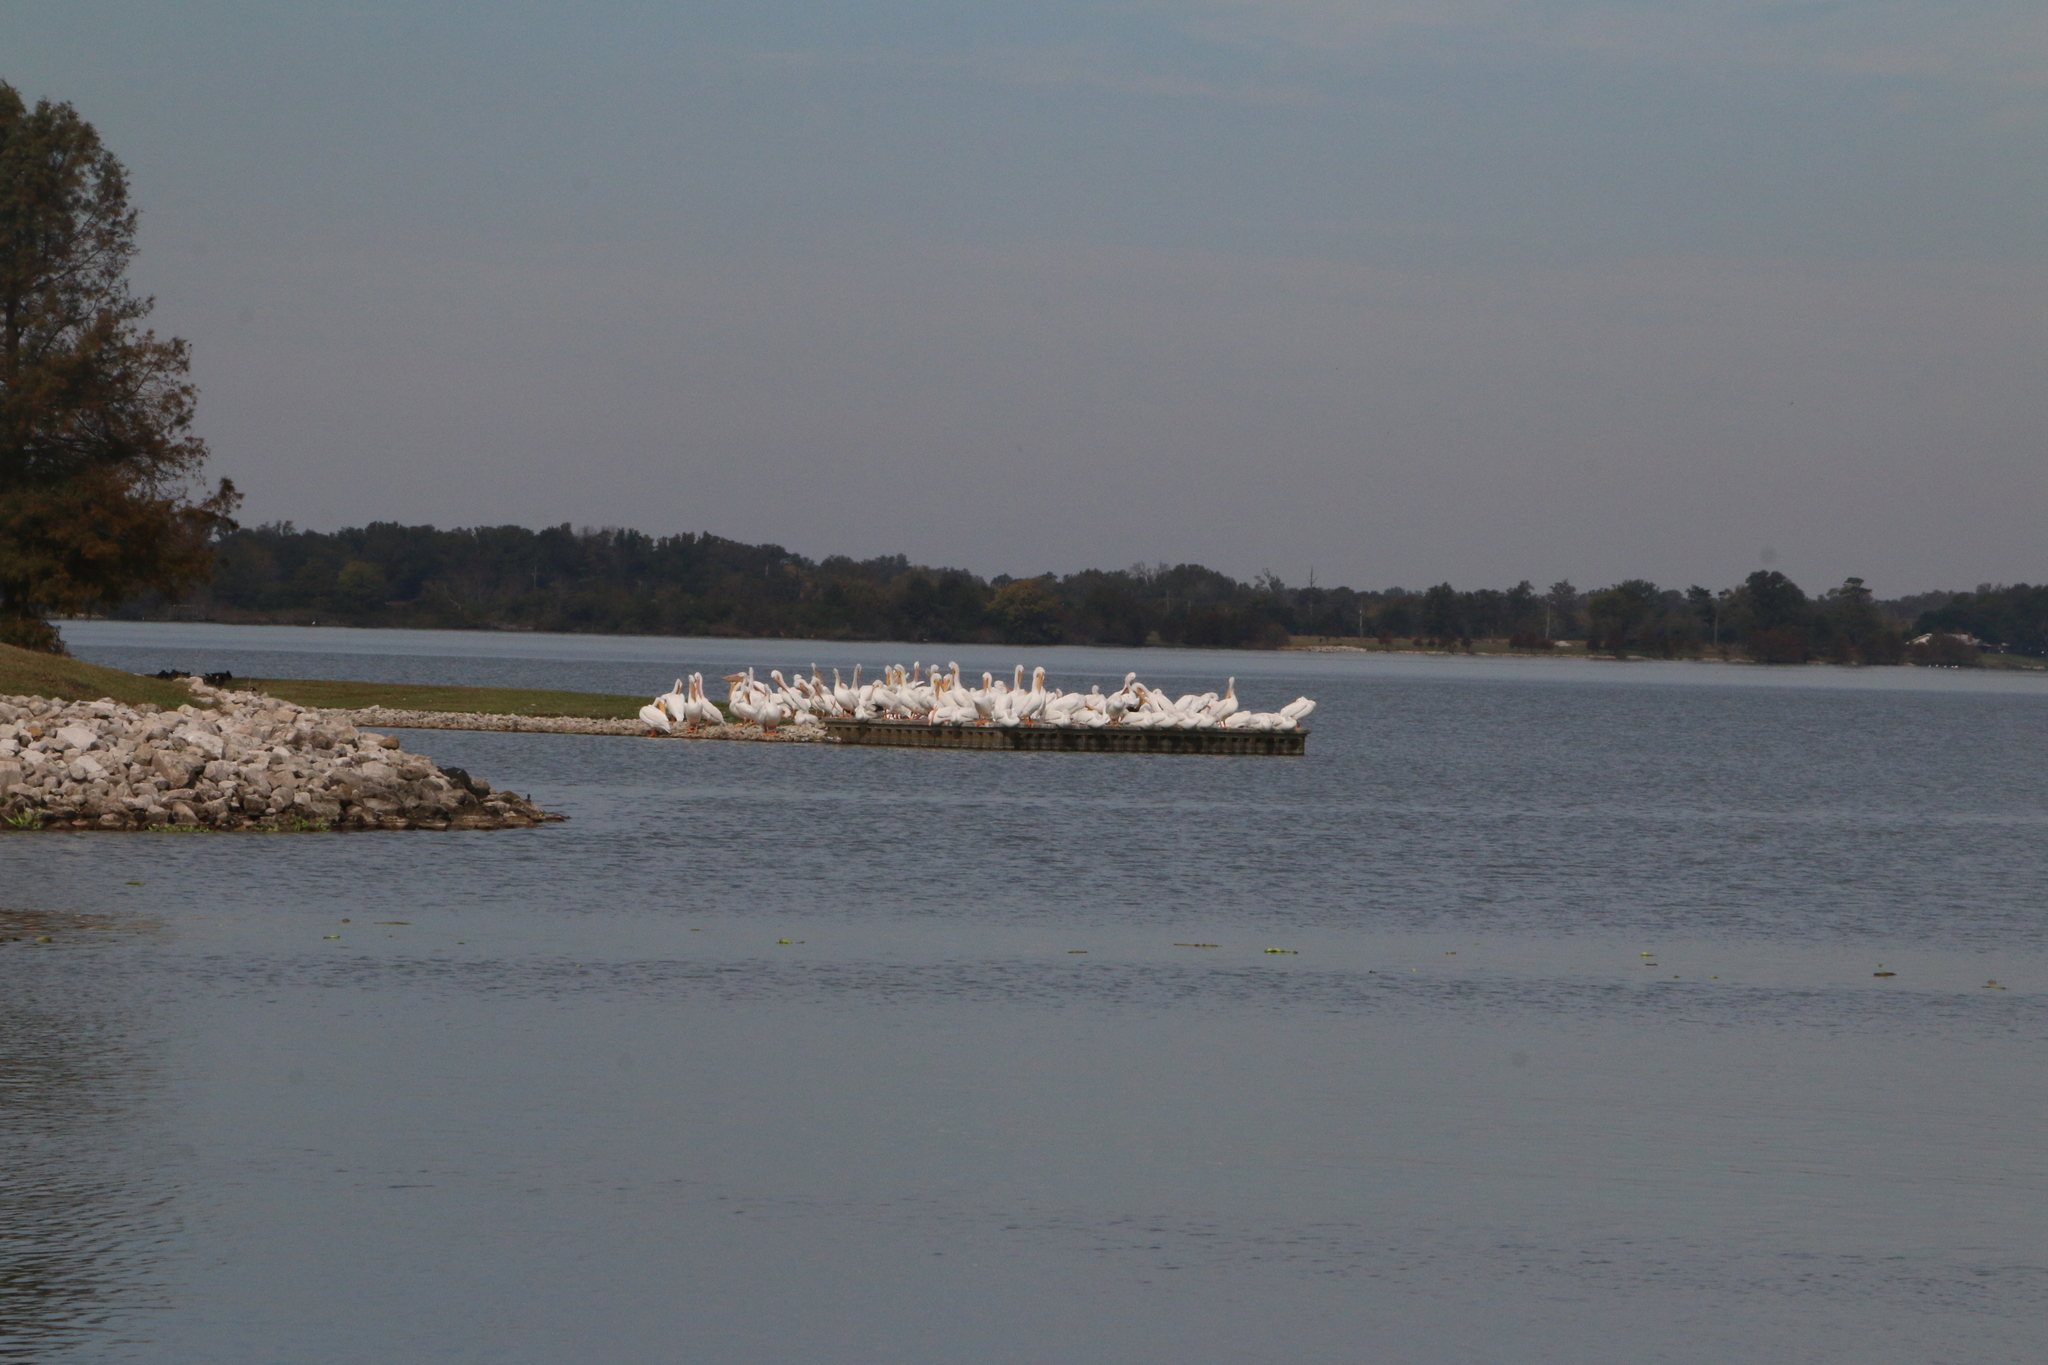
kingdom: Animalia
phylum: Chordata
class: Aves
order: Pelecaniformes
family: Pelecanidae
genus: Pelecanus
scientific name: Pelecanus erythrorhynchos
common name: American white pelican
